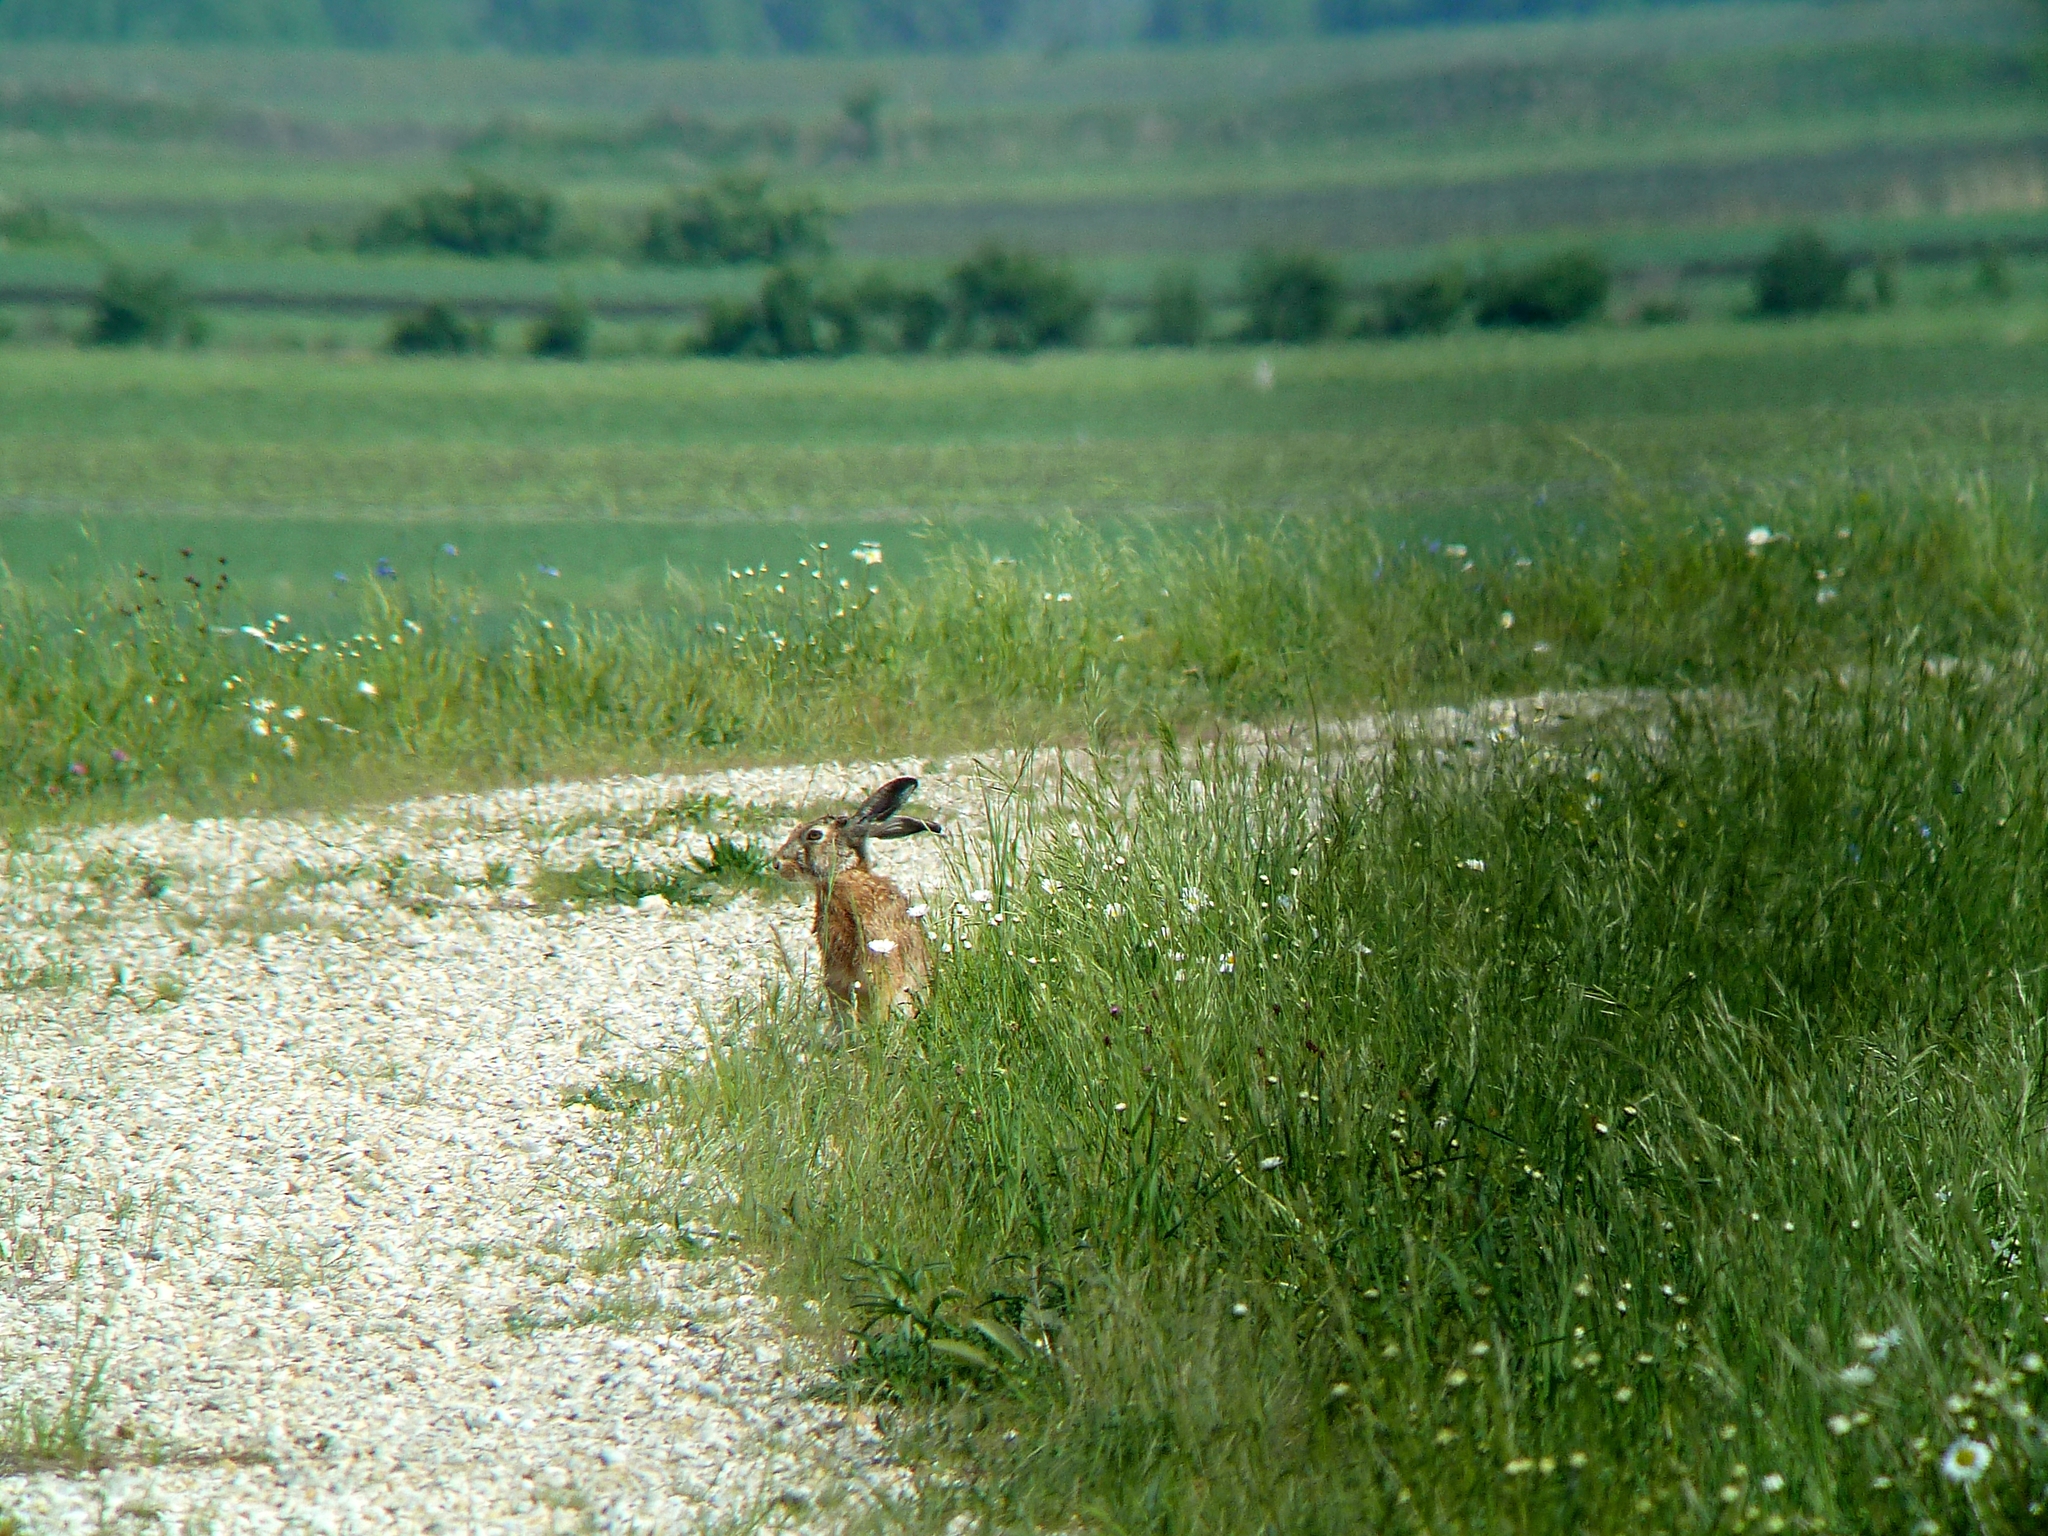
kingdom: Animalia
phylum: Chordata
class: Mammalia
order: Lagomorpha
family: Leporidae
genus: Lepus
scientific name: Lepus europaeus
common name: European hare
